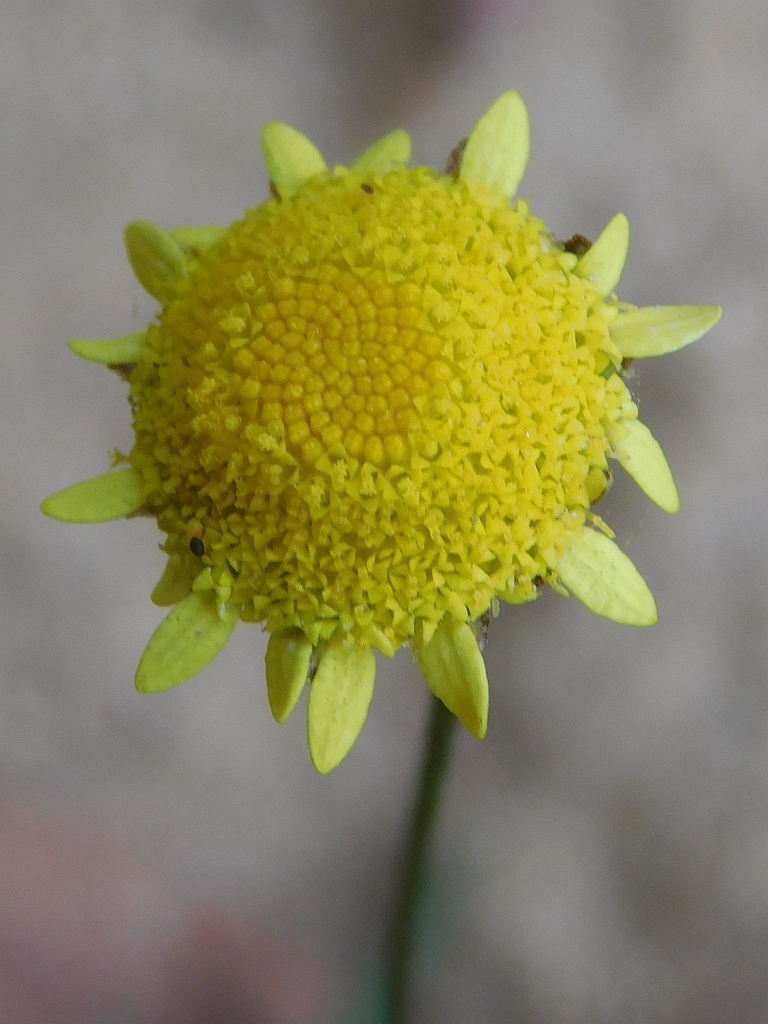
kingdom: Plantae
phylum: Tracheophyta
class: Magnoliopsida
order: Asterales
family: Asteraceae
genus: Cotula
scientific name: Cotula pruinosa
